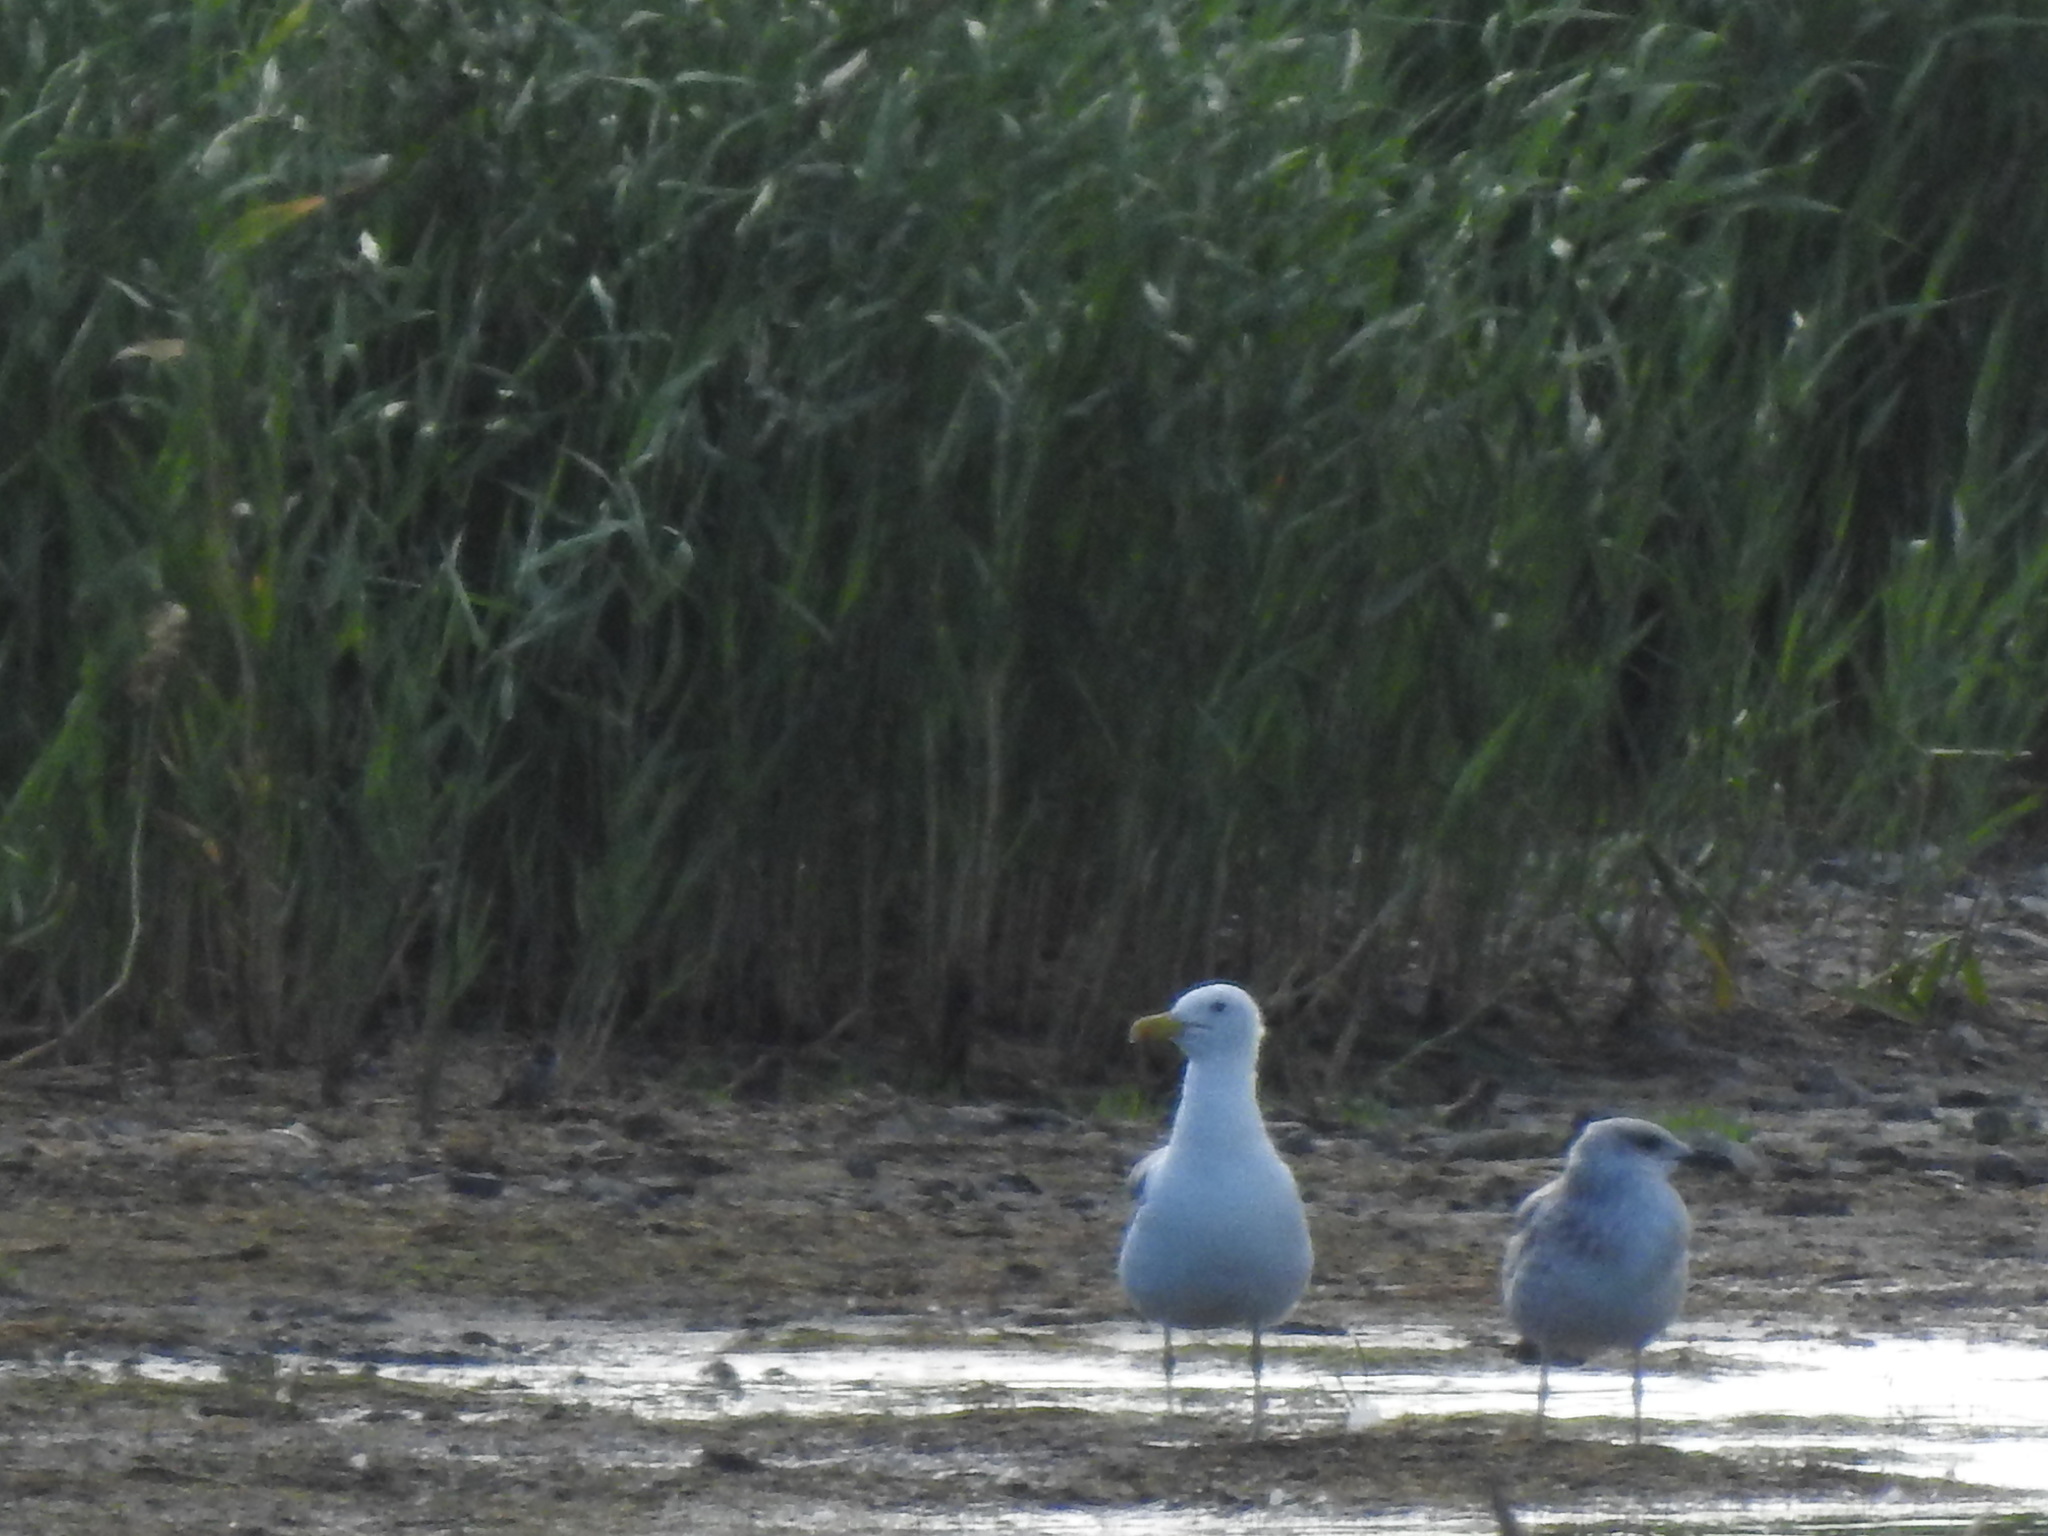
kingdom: Animalia
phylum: Chordata
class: Aves
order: Charadriiformes
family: Laridae
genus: Larus
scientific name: Larus fuscus
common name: Lesser black-backed gull
